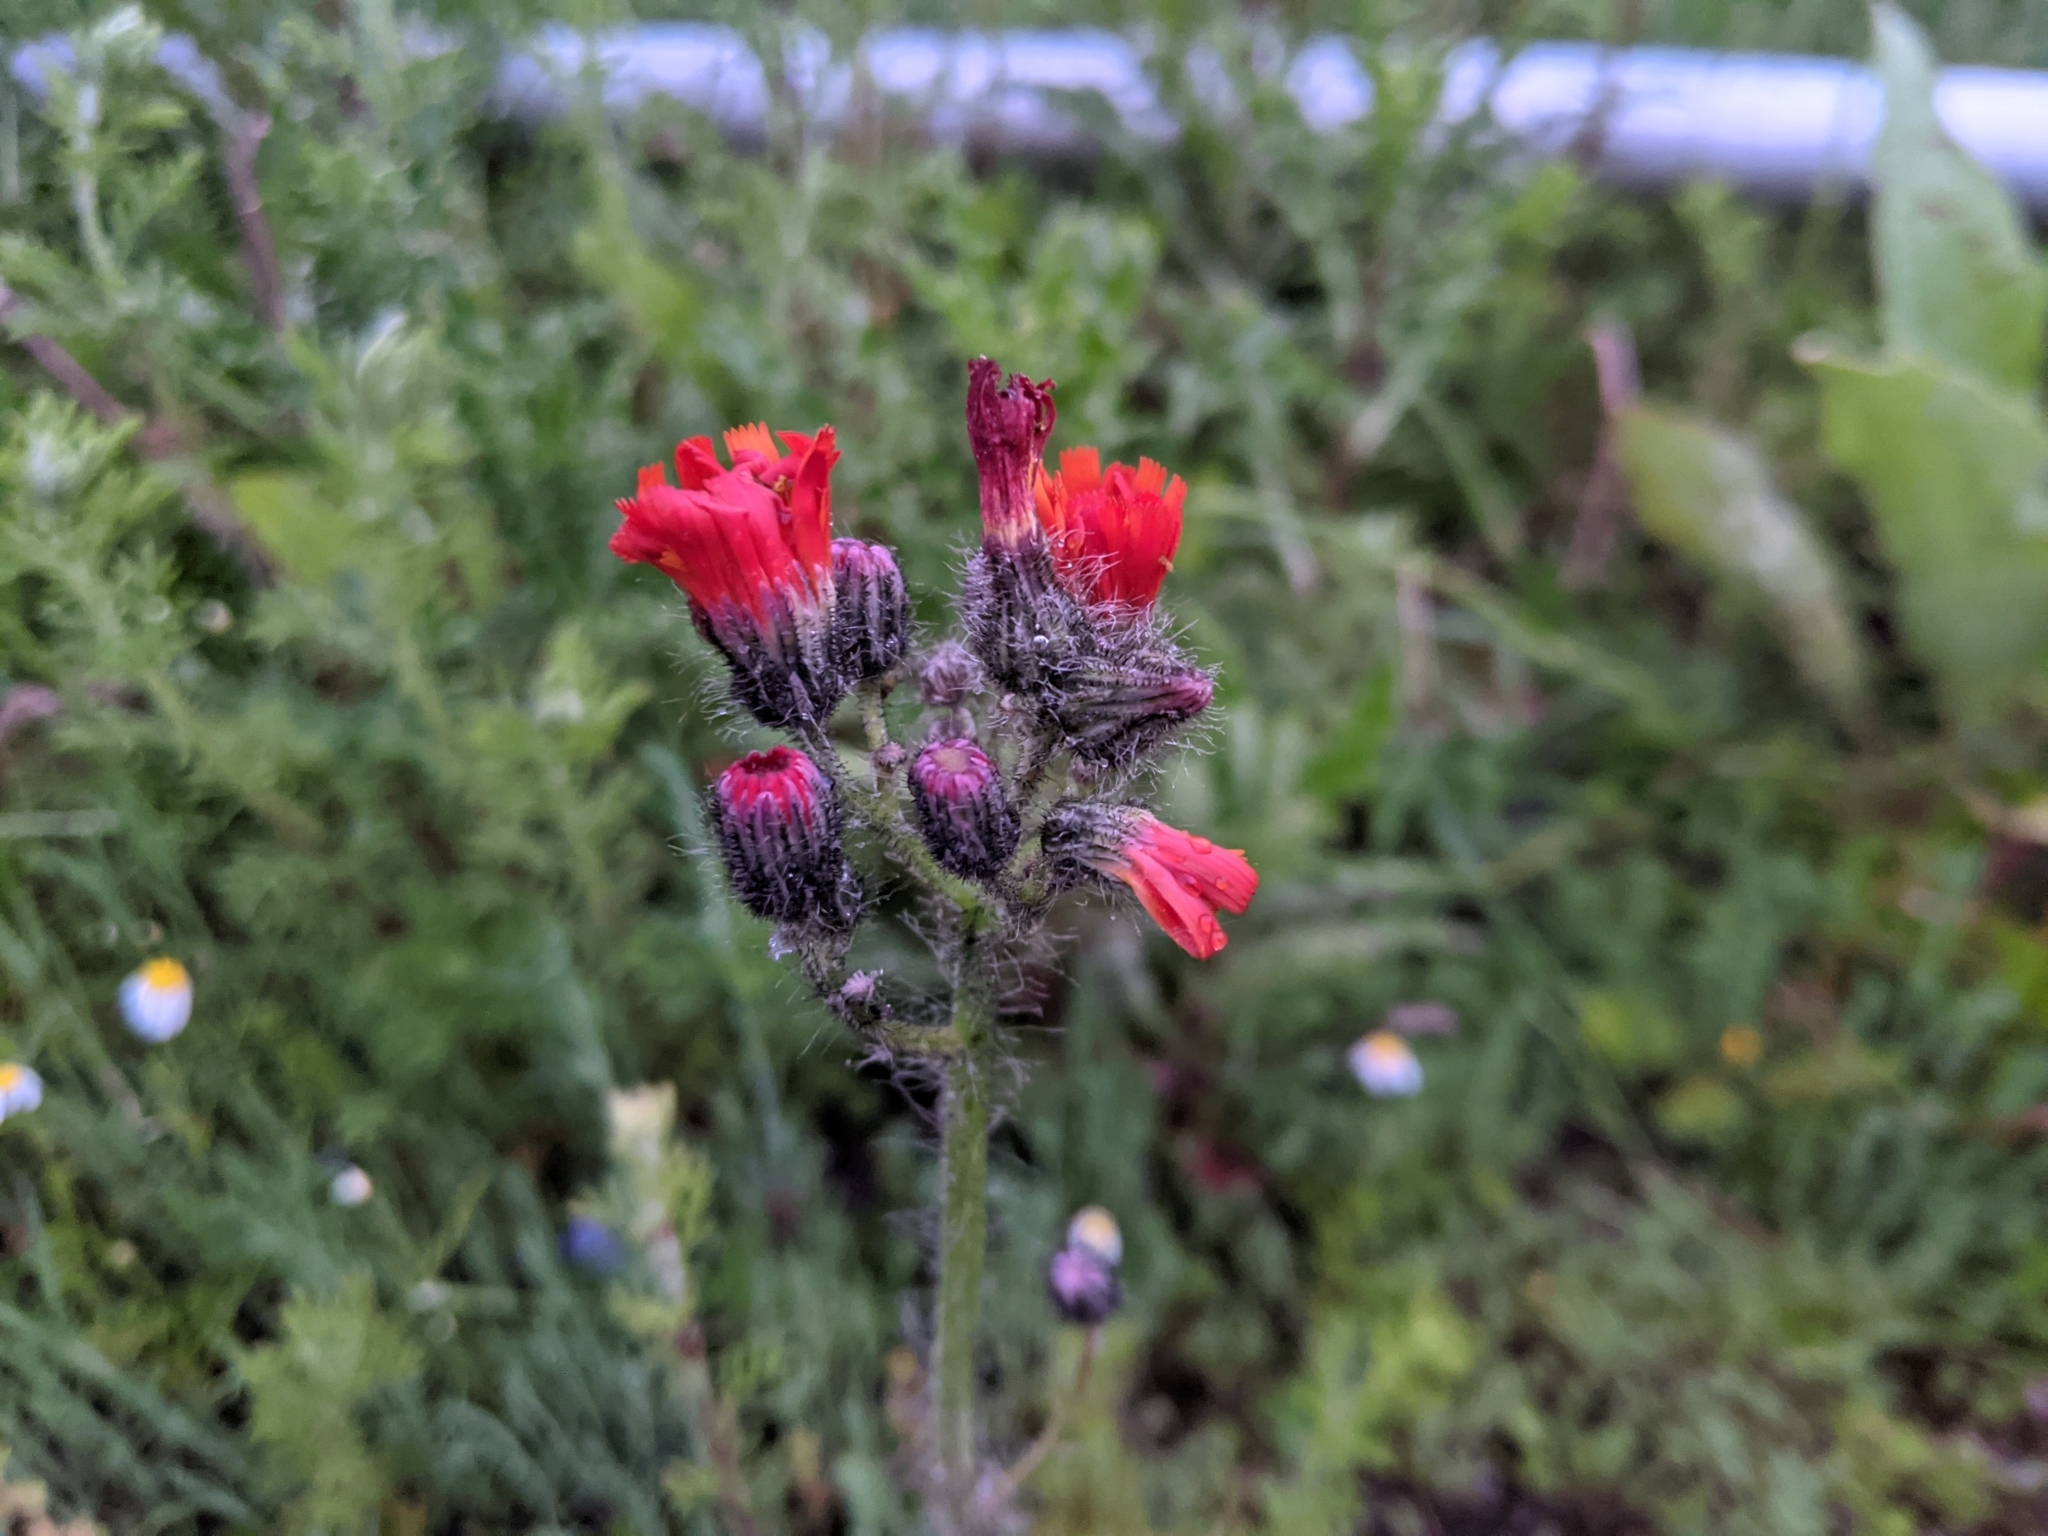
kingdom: Plantae
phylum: Tracheophyta
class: Magnoliopsida
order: Asterales
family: Asteraceae
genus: Pilosella
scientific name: Pilosella aurantiaca
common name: Fox-and-cubs
